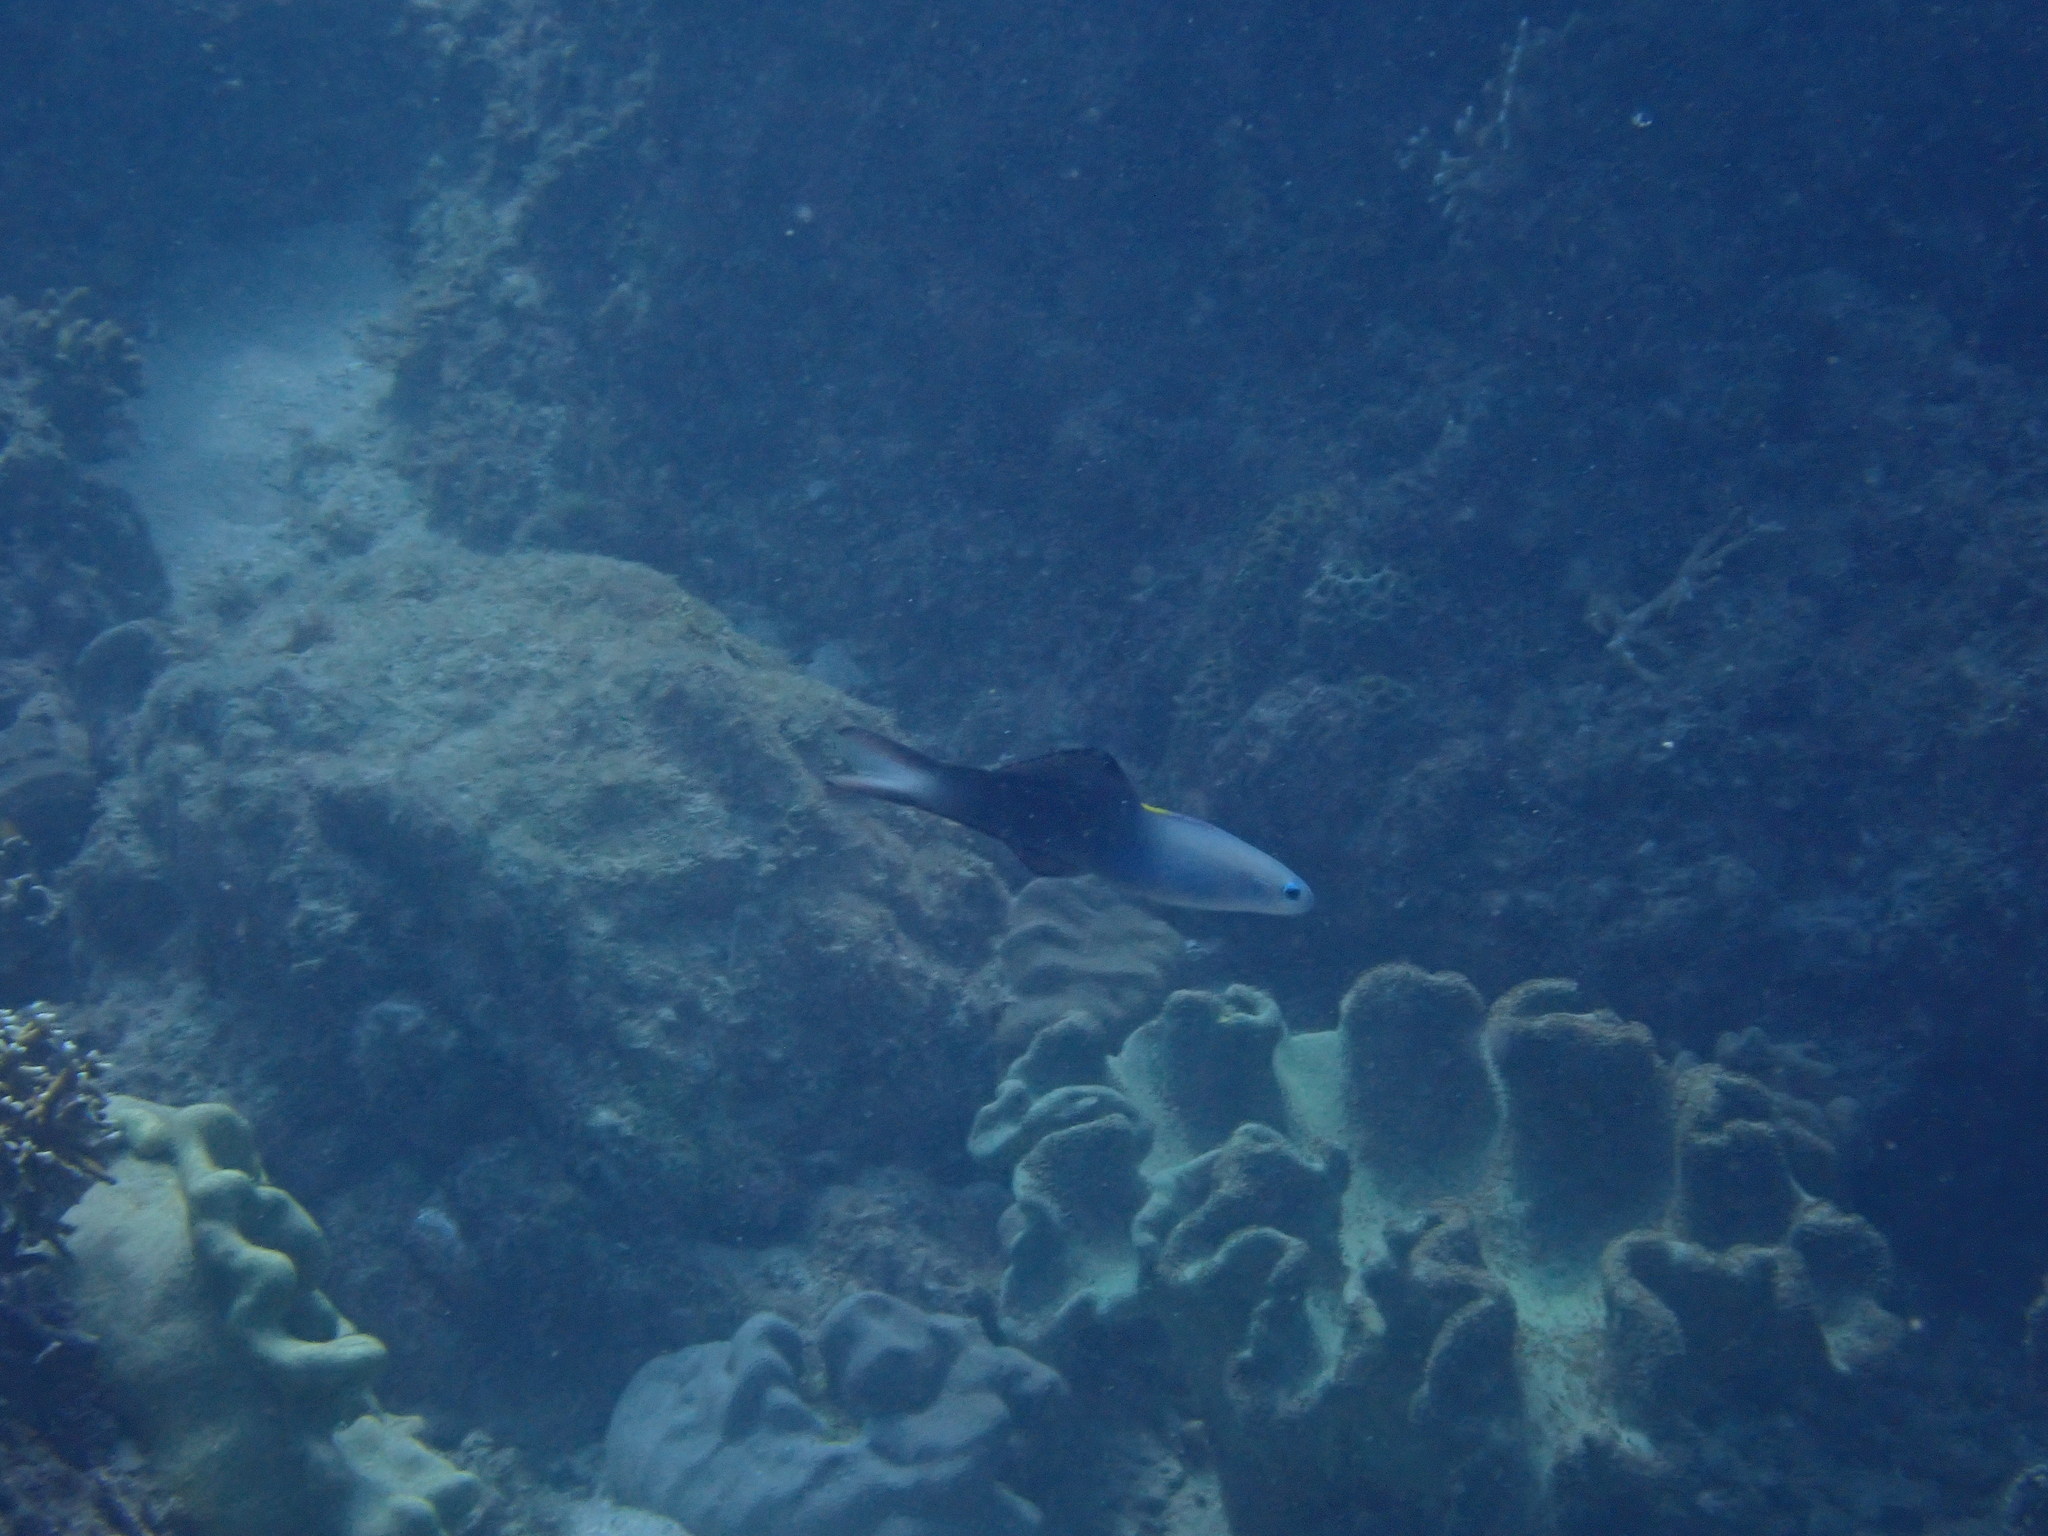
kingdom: Animalia
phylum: Chordata
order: Perciformes
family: Microdesmidae
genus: Ptereleotris
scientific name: Ptereleotris evides
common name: Blackfin dartfish
